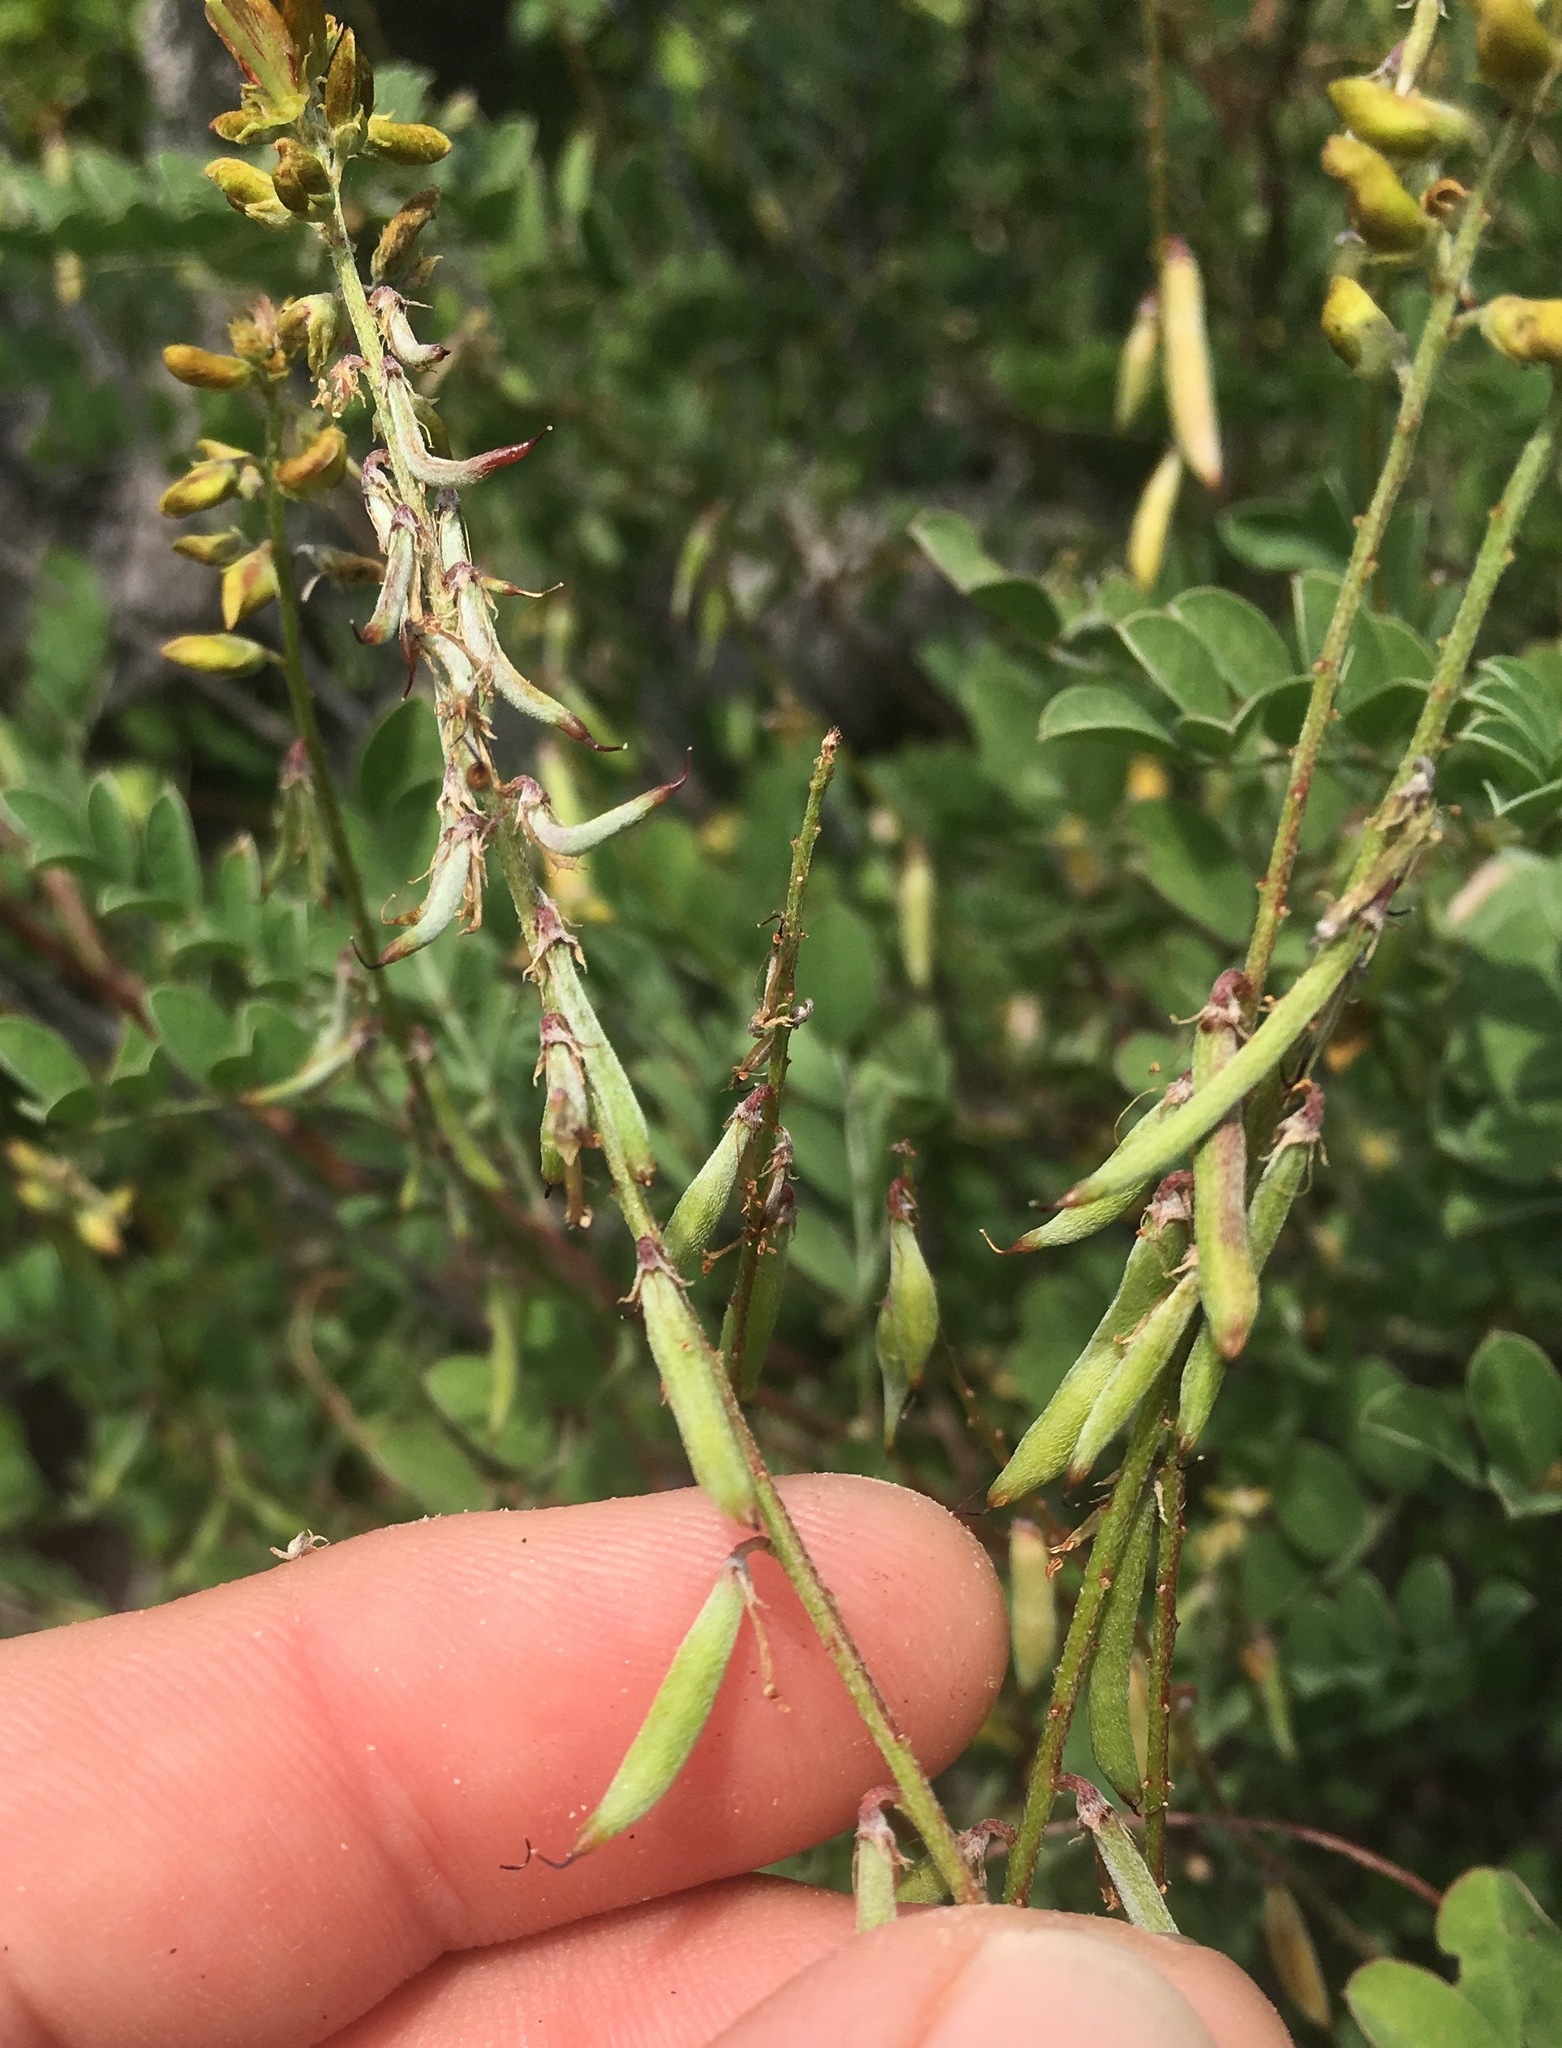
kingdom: Plantae
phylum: Tracheophyta
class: Magnoliopsida
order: Fabales
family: Fabaceae
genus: Indigofera
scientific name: Indigofera fruticosa
